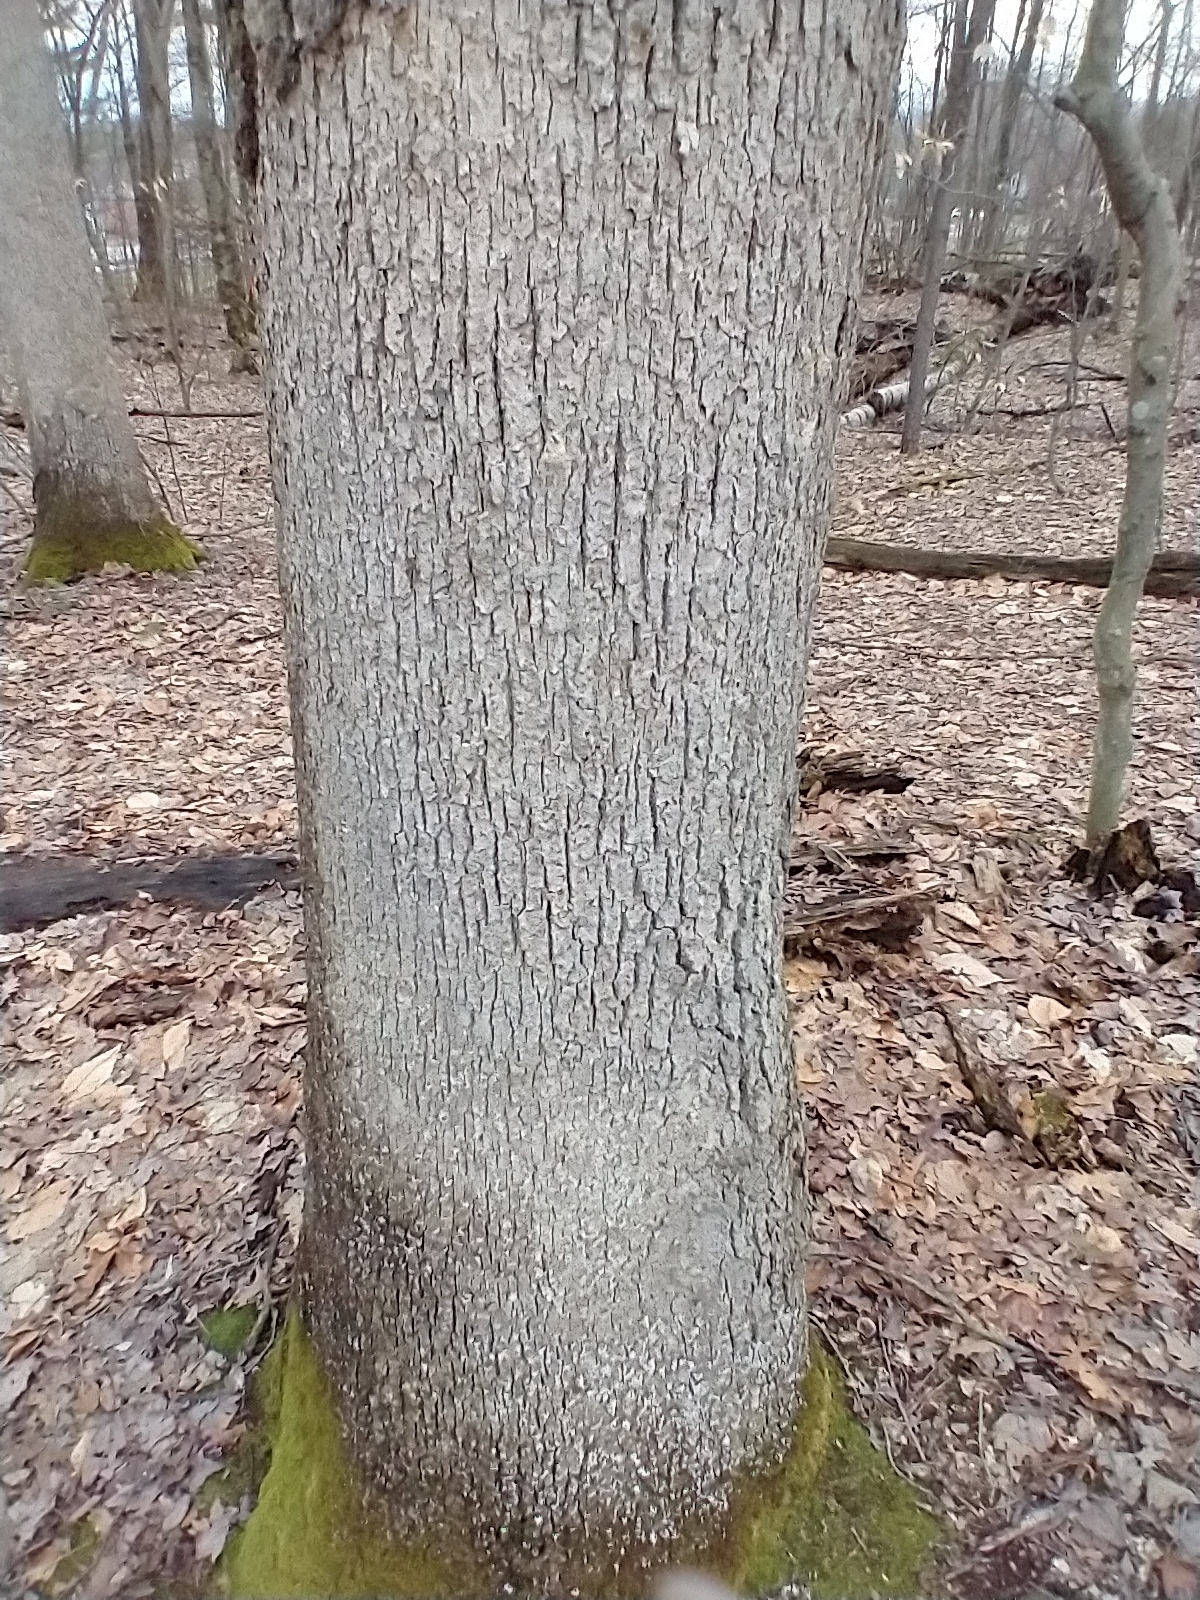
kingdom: Fungi
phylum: Basidiomycota
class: Agaricomycetes
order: Russulales
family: Stereaceae
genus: Acanthophysium
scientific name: Acanthophysium oakesii
